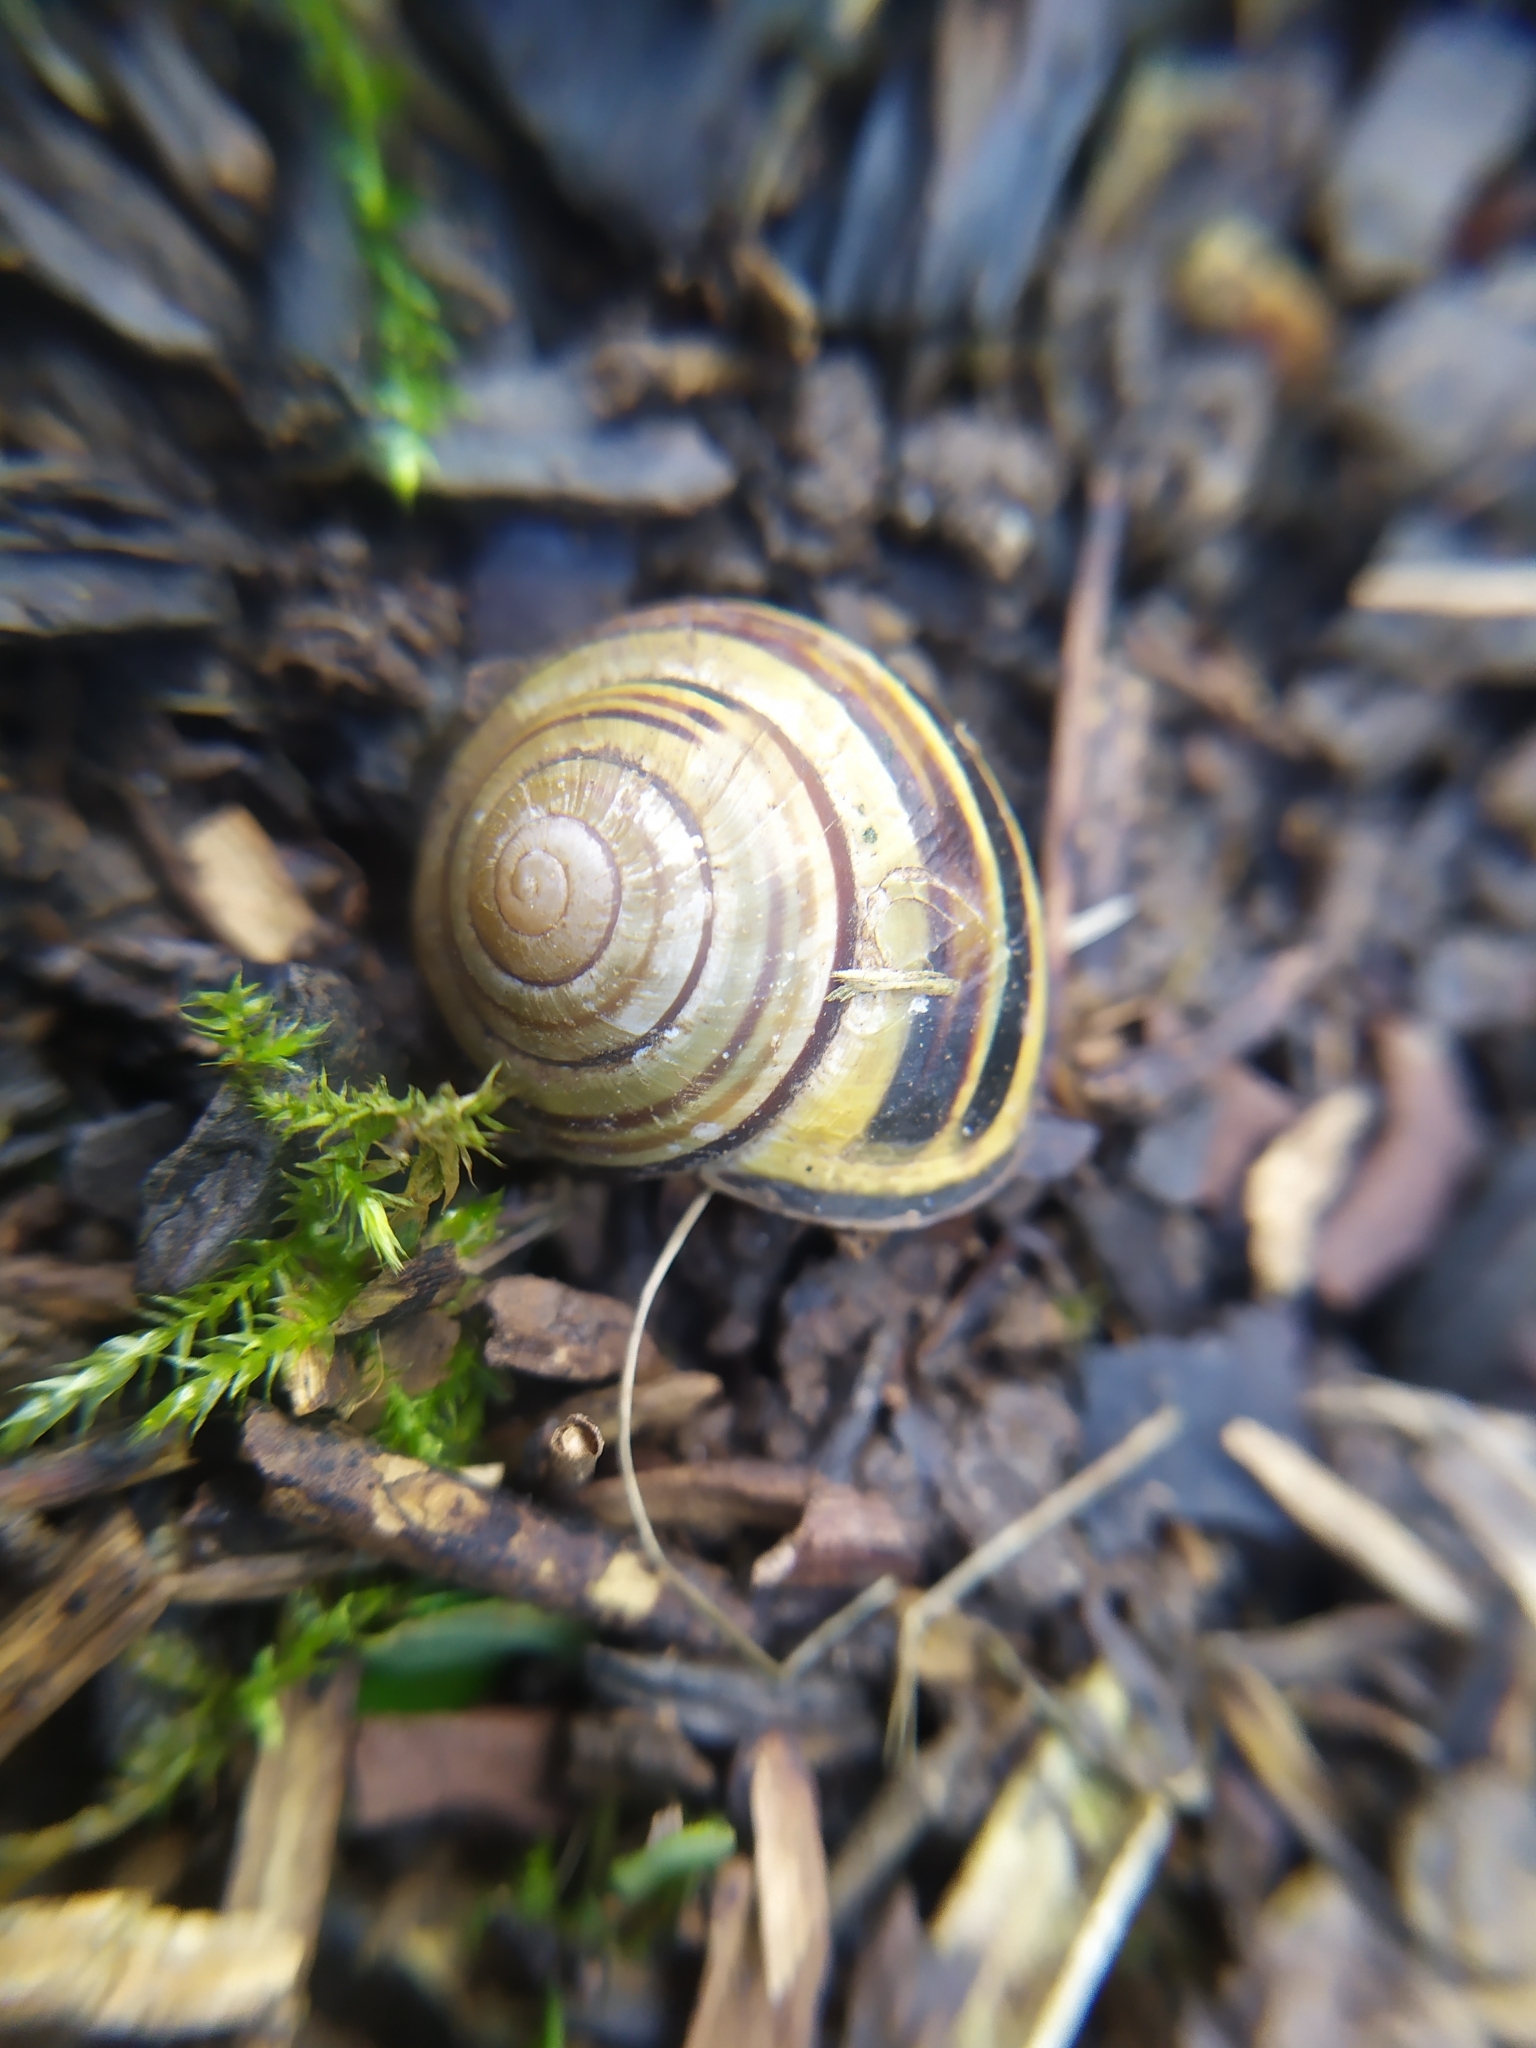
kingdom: Animalia
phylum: Mollusca
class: Gastropoda
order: Stylommatophora
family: Helicidae
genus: Cepaea
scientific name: Cepaea nemoralis
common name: Grovesnail
